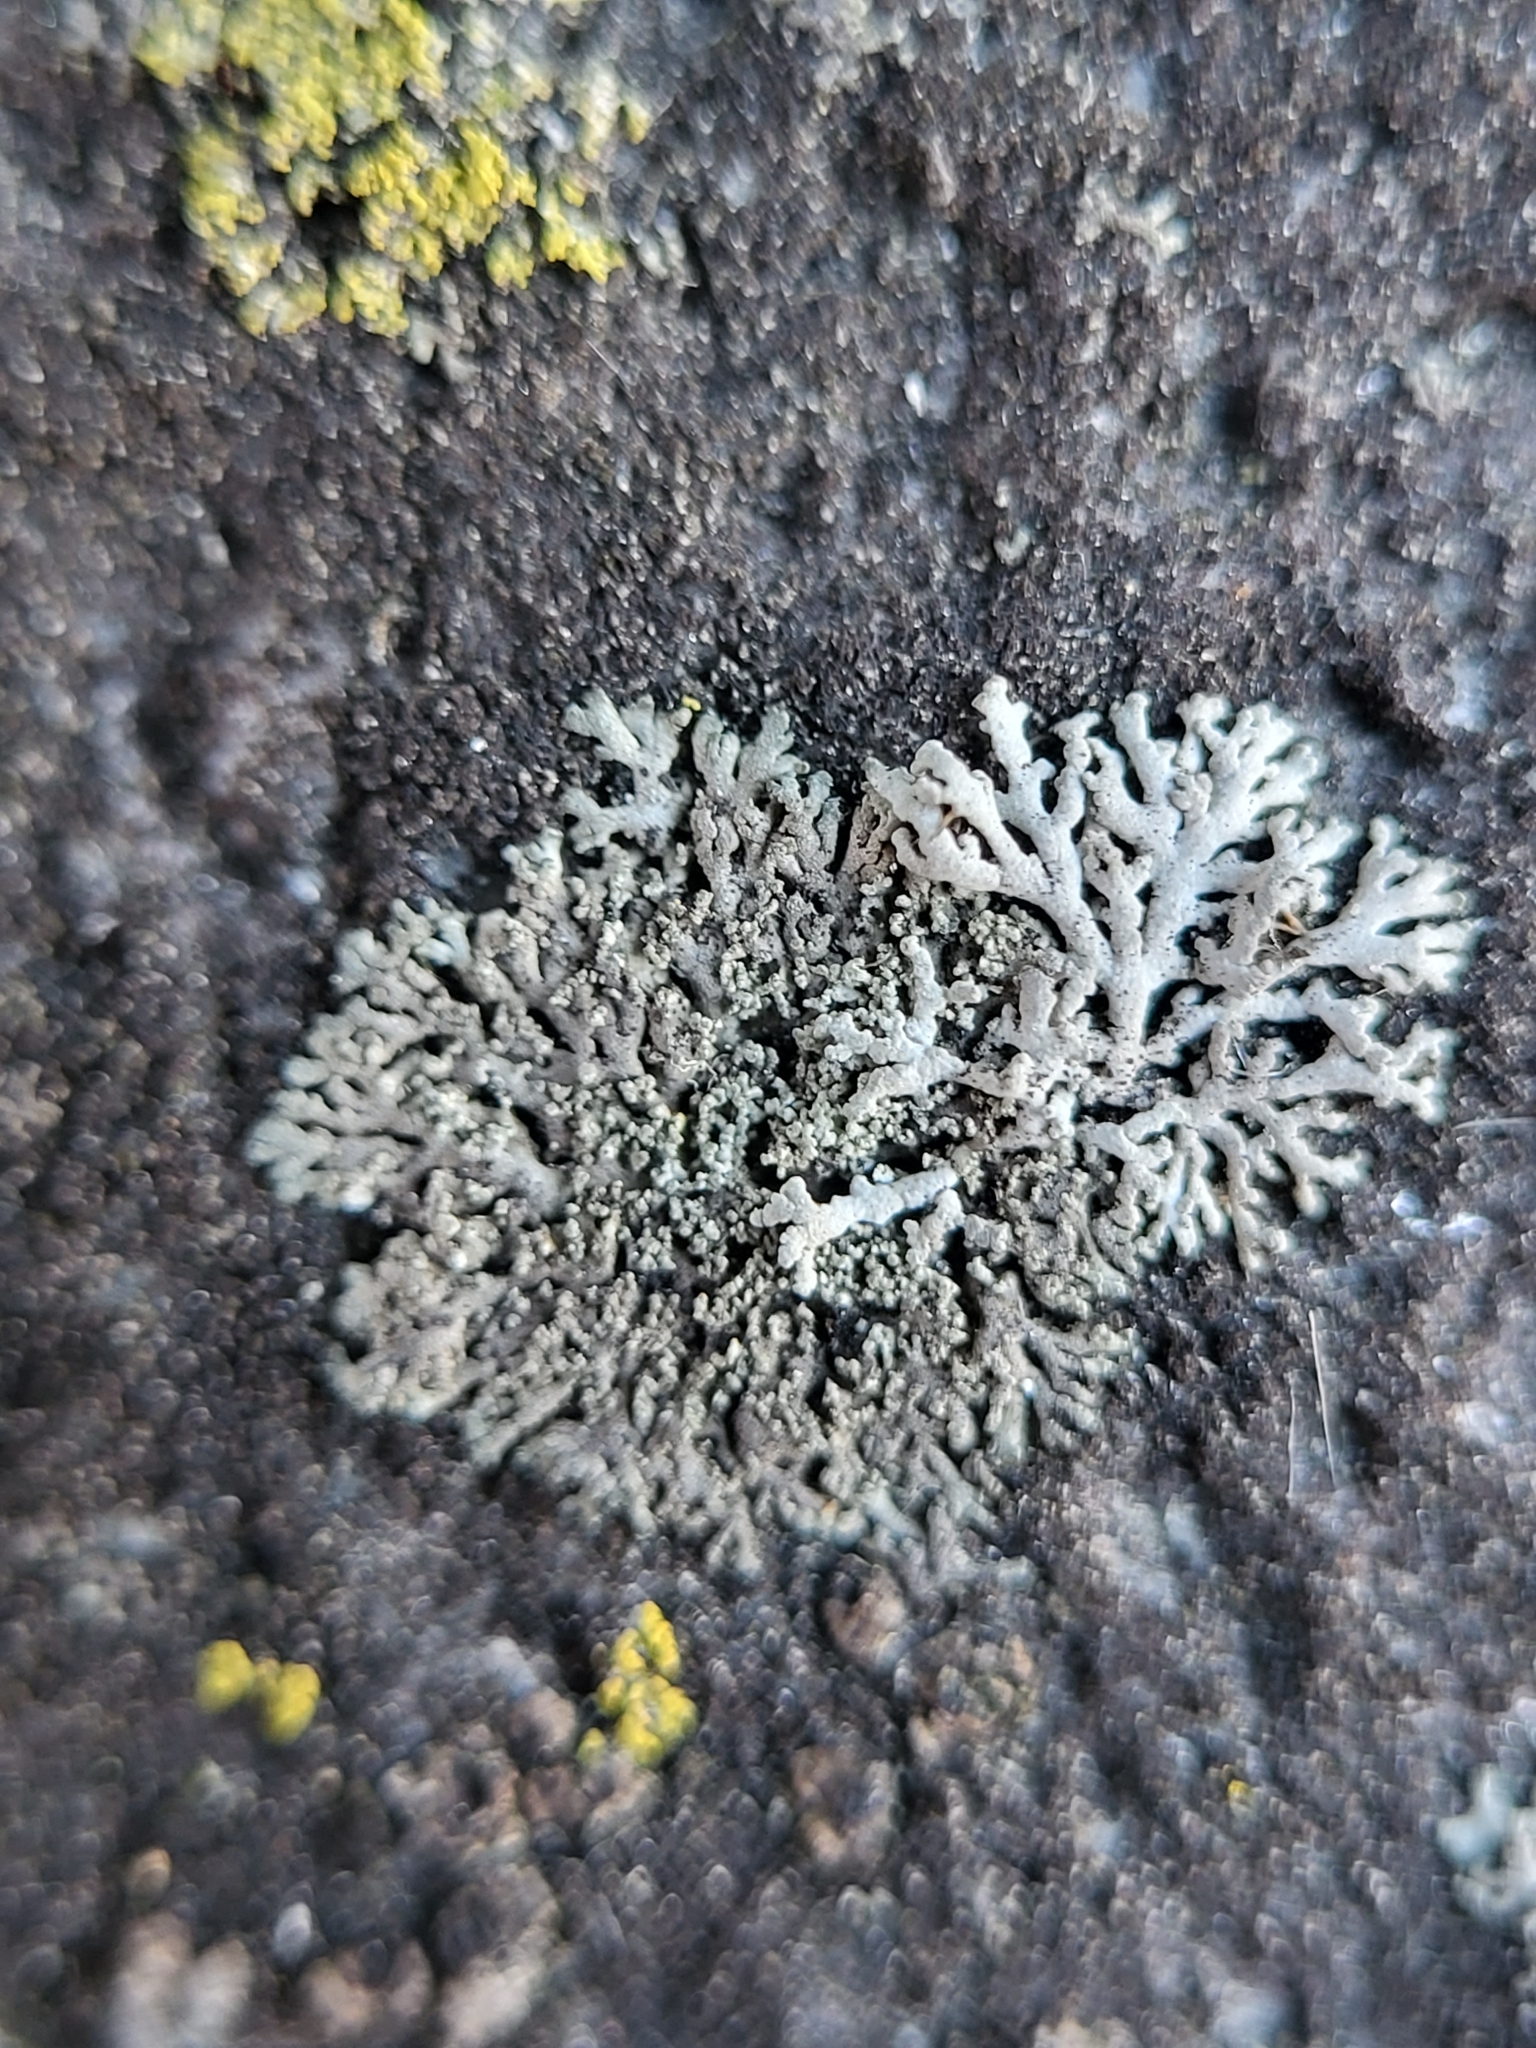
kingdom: Fungi
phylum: Ascomycota
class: Lecanoromycetes
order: Caliciales
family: Physciaceae
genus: Physcia
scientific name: Physcia thomsoniana
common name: Thomson's rosette lichen
